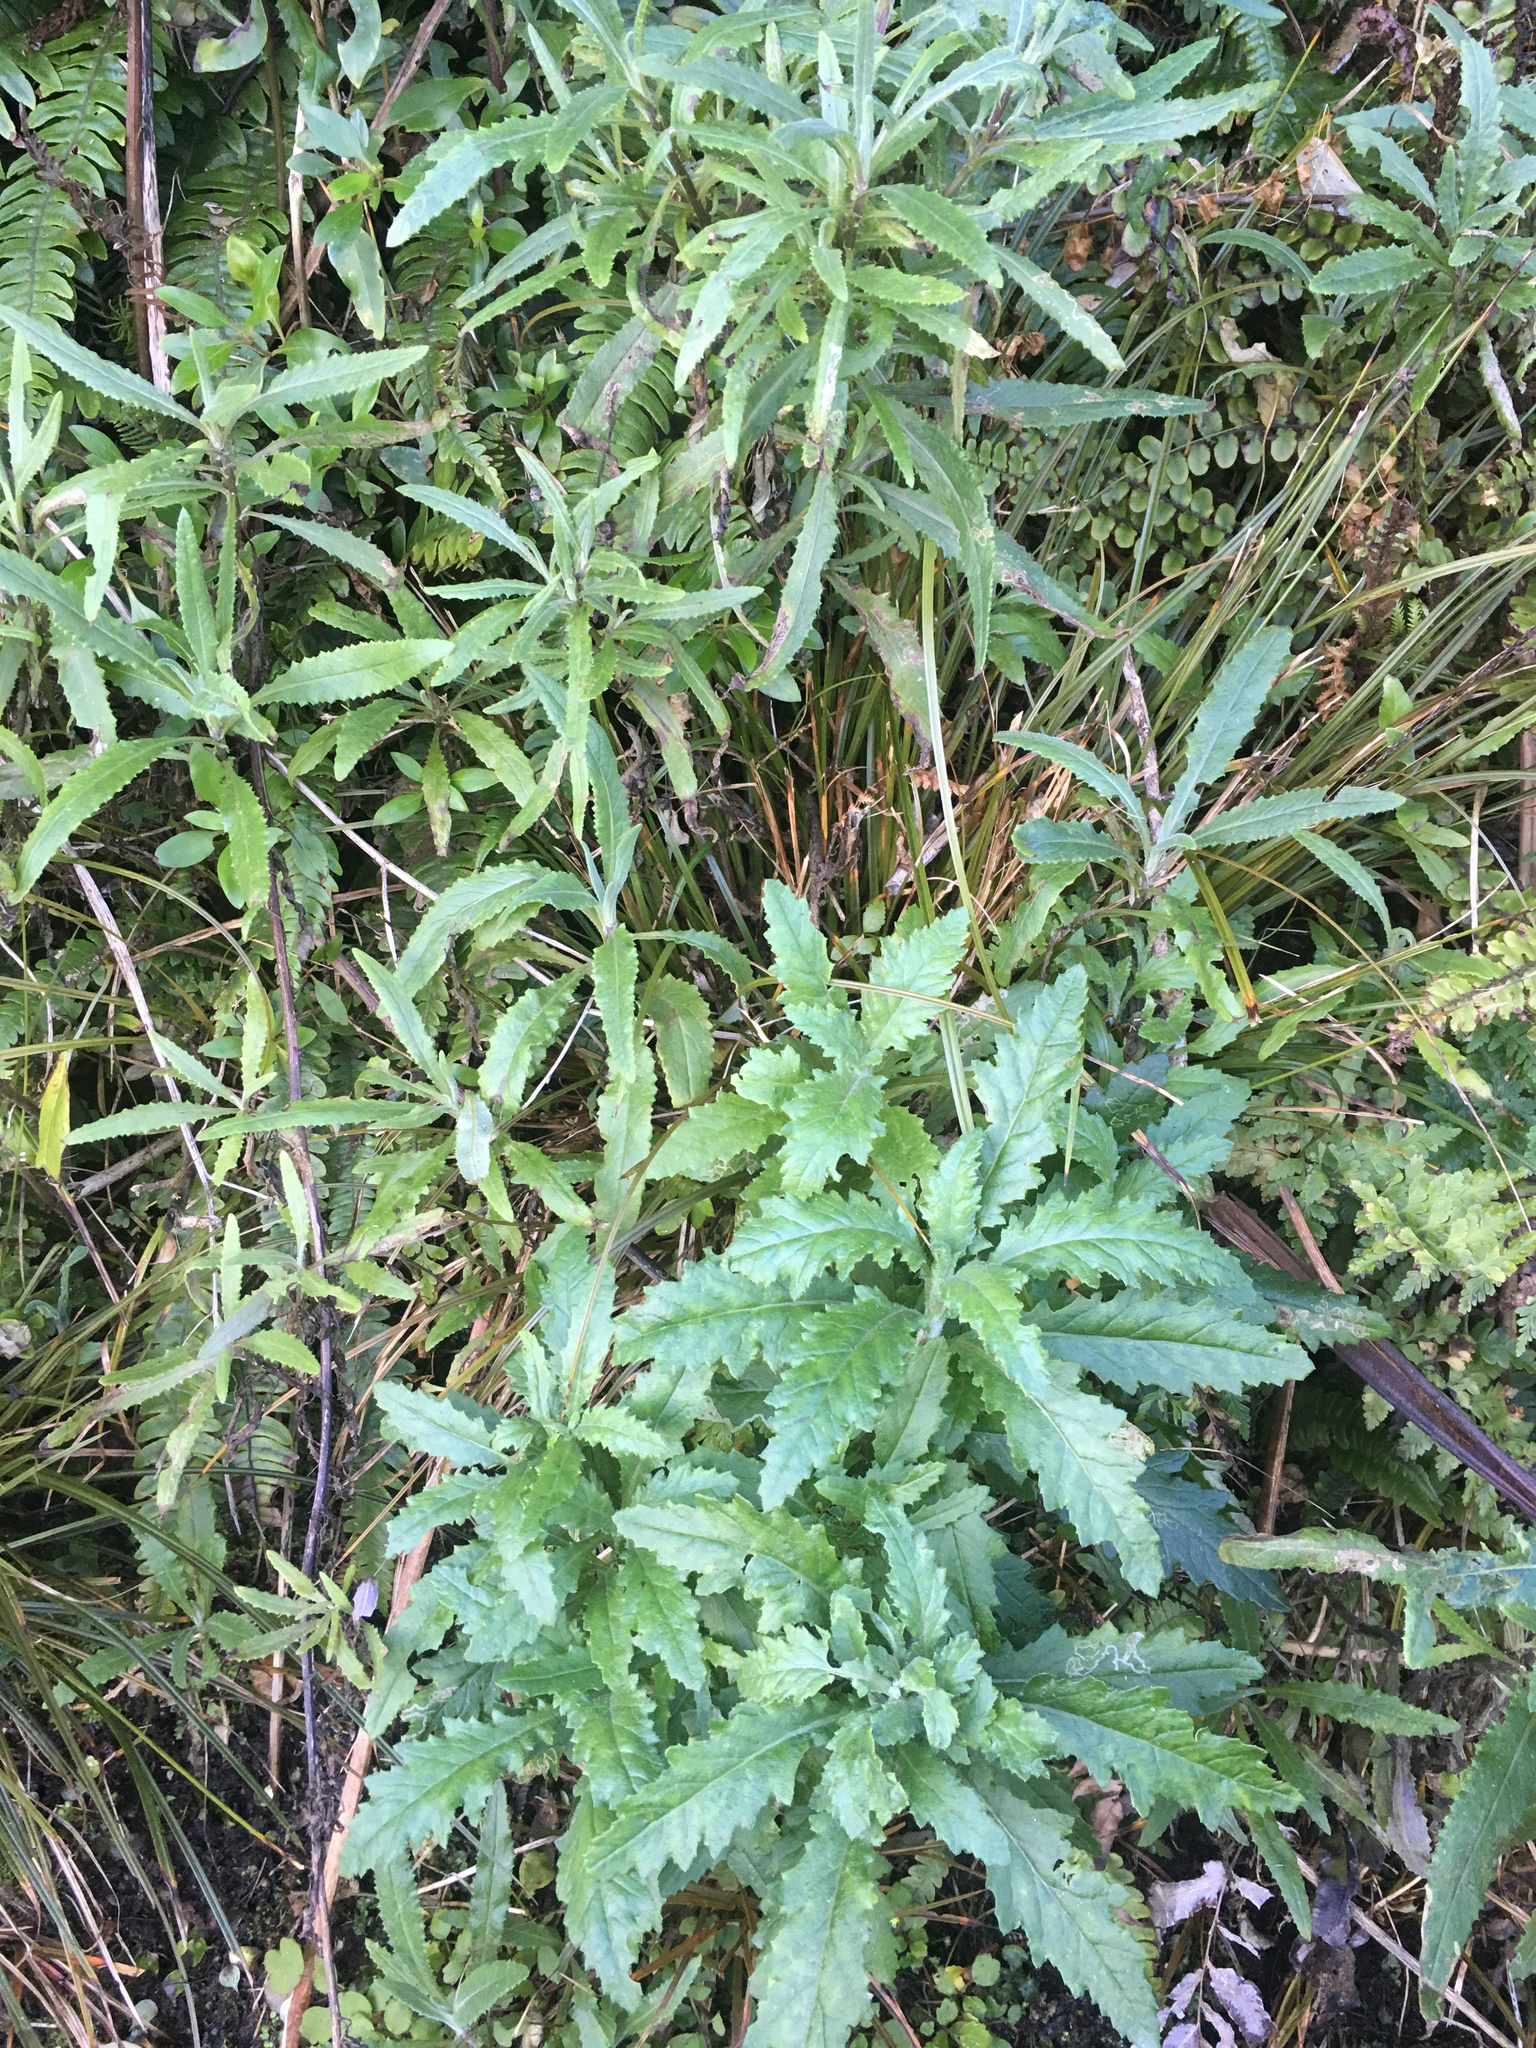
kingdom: Plantae
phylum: Tracheophyta
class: Magnoliopsida
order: Asterales
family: Asteraceae
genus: Senecio
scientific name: Senecio minimus
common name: Toothed fireweed
